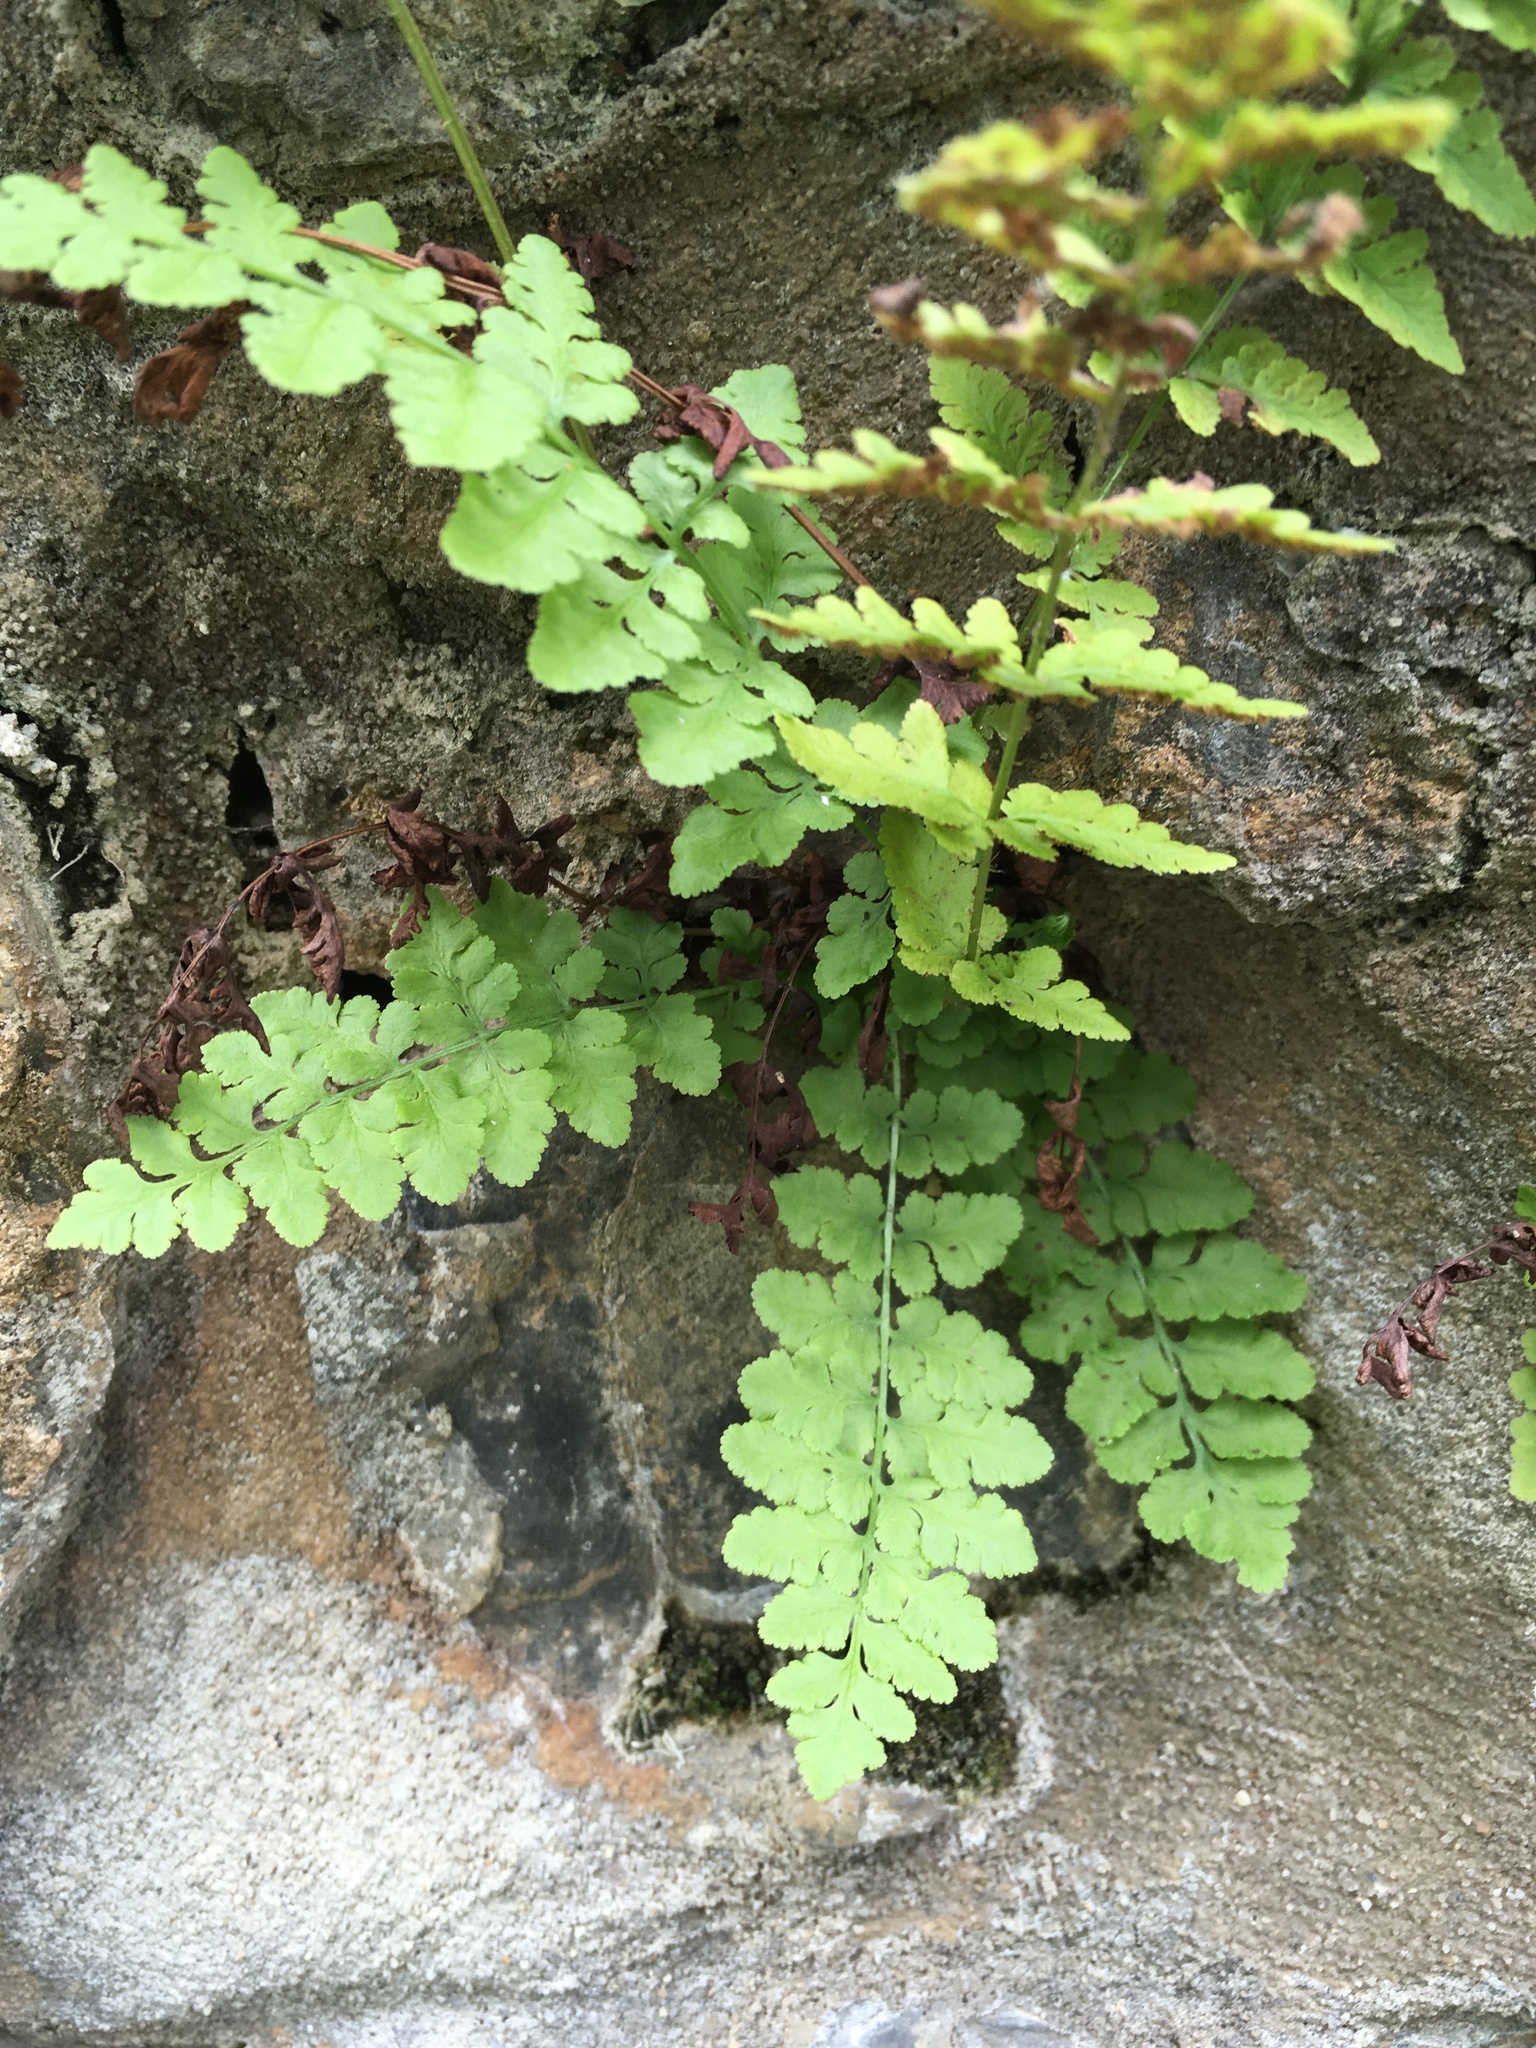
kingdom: Plantae
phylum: Tracheophyta
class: Polypodiopsida
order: Polypodiales
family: Woodsiaceae
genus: Physematium
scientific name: Physematium obtusum
